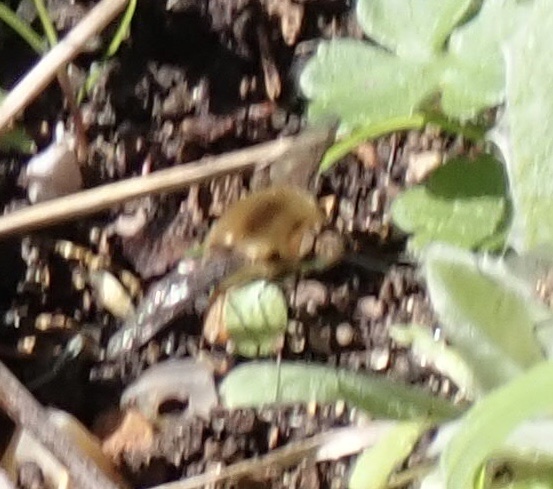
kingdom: Animalia
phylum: Arthropoda
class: Insecta
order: Diptera
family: Bombyliidae
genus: Bombylius
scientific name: Bombylius major
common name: Bee fly
